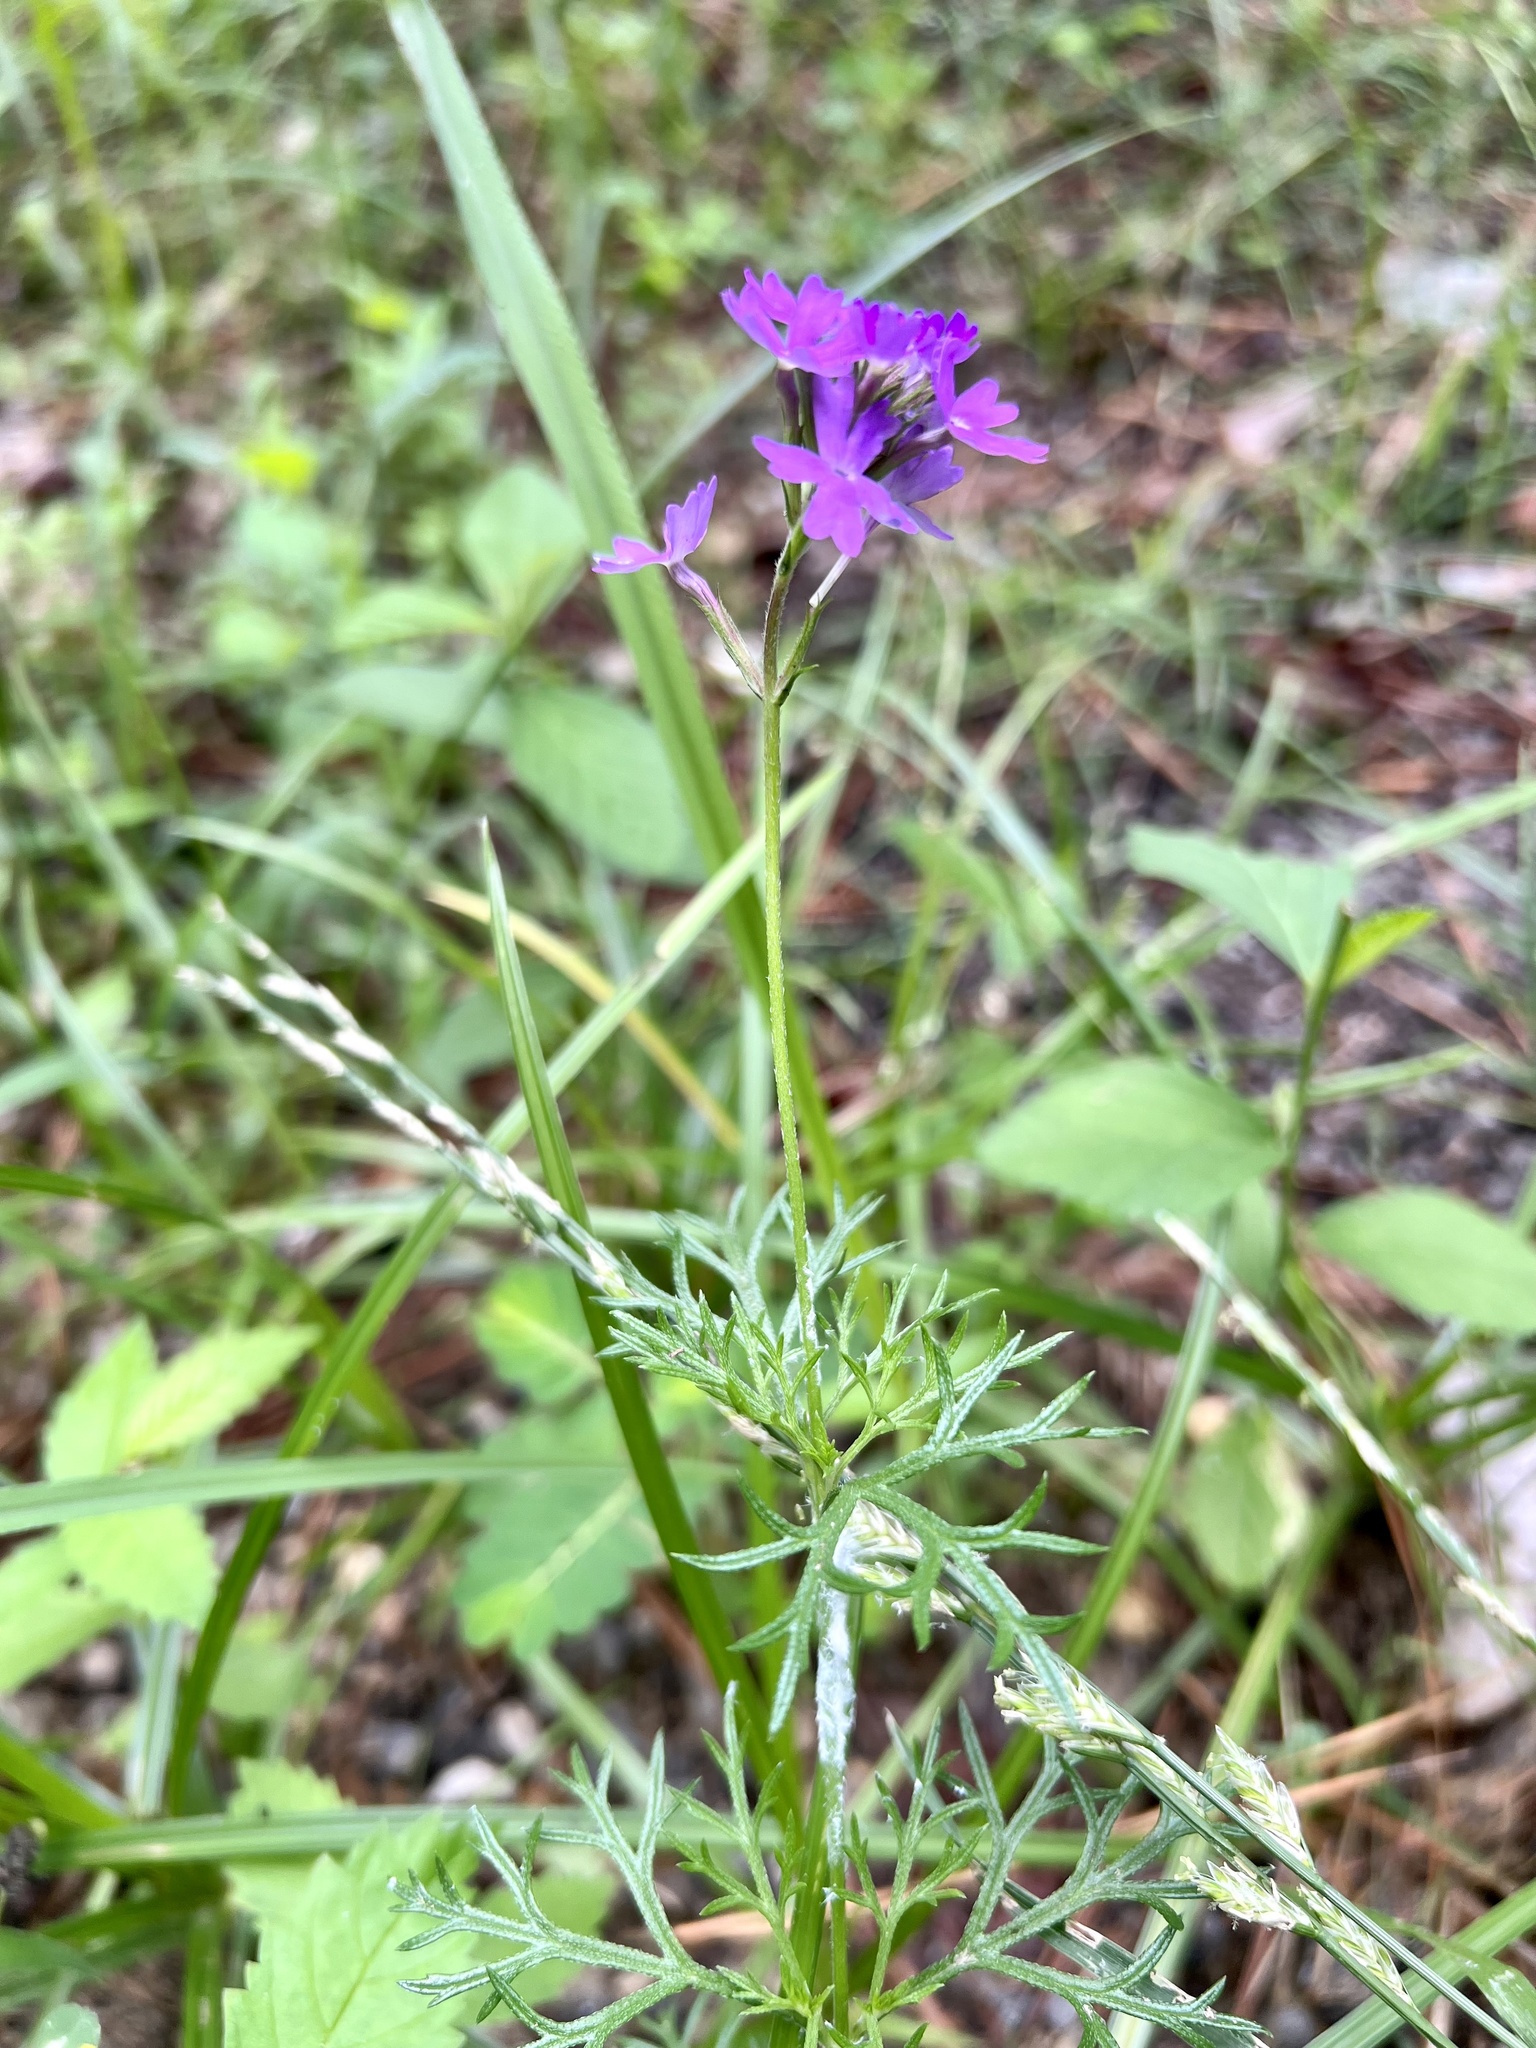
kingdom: Plantae
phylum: Tracheophyta
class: Magnoliopsida
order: Lamiales
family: Verbenaceae
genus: Verbena
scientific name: Verbena aristigera
